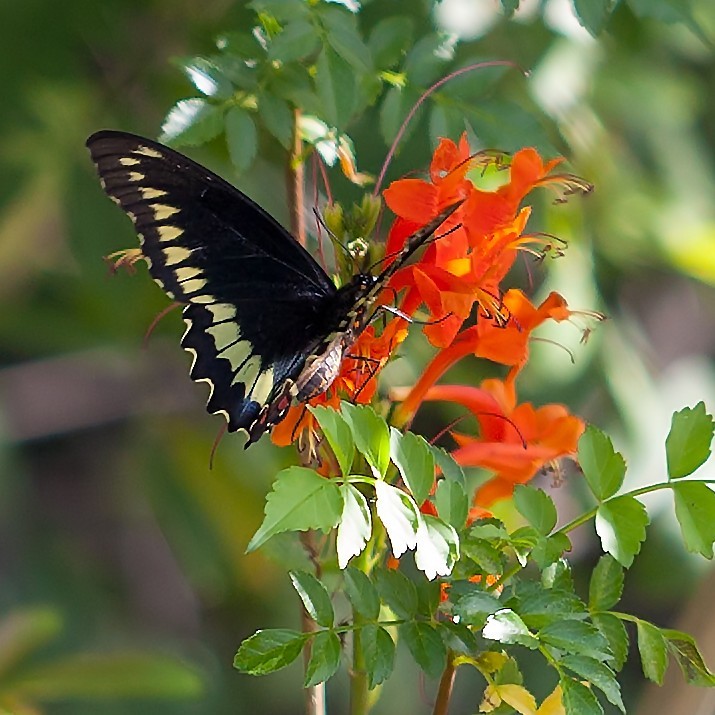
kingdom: Animalia
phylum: Arthropoda
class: Insecta
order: Lepidoptera
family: Papilionidae
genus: Battus
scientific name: Battus polydamas
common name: Polydamas swallowtail
